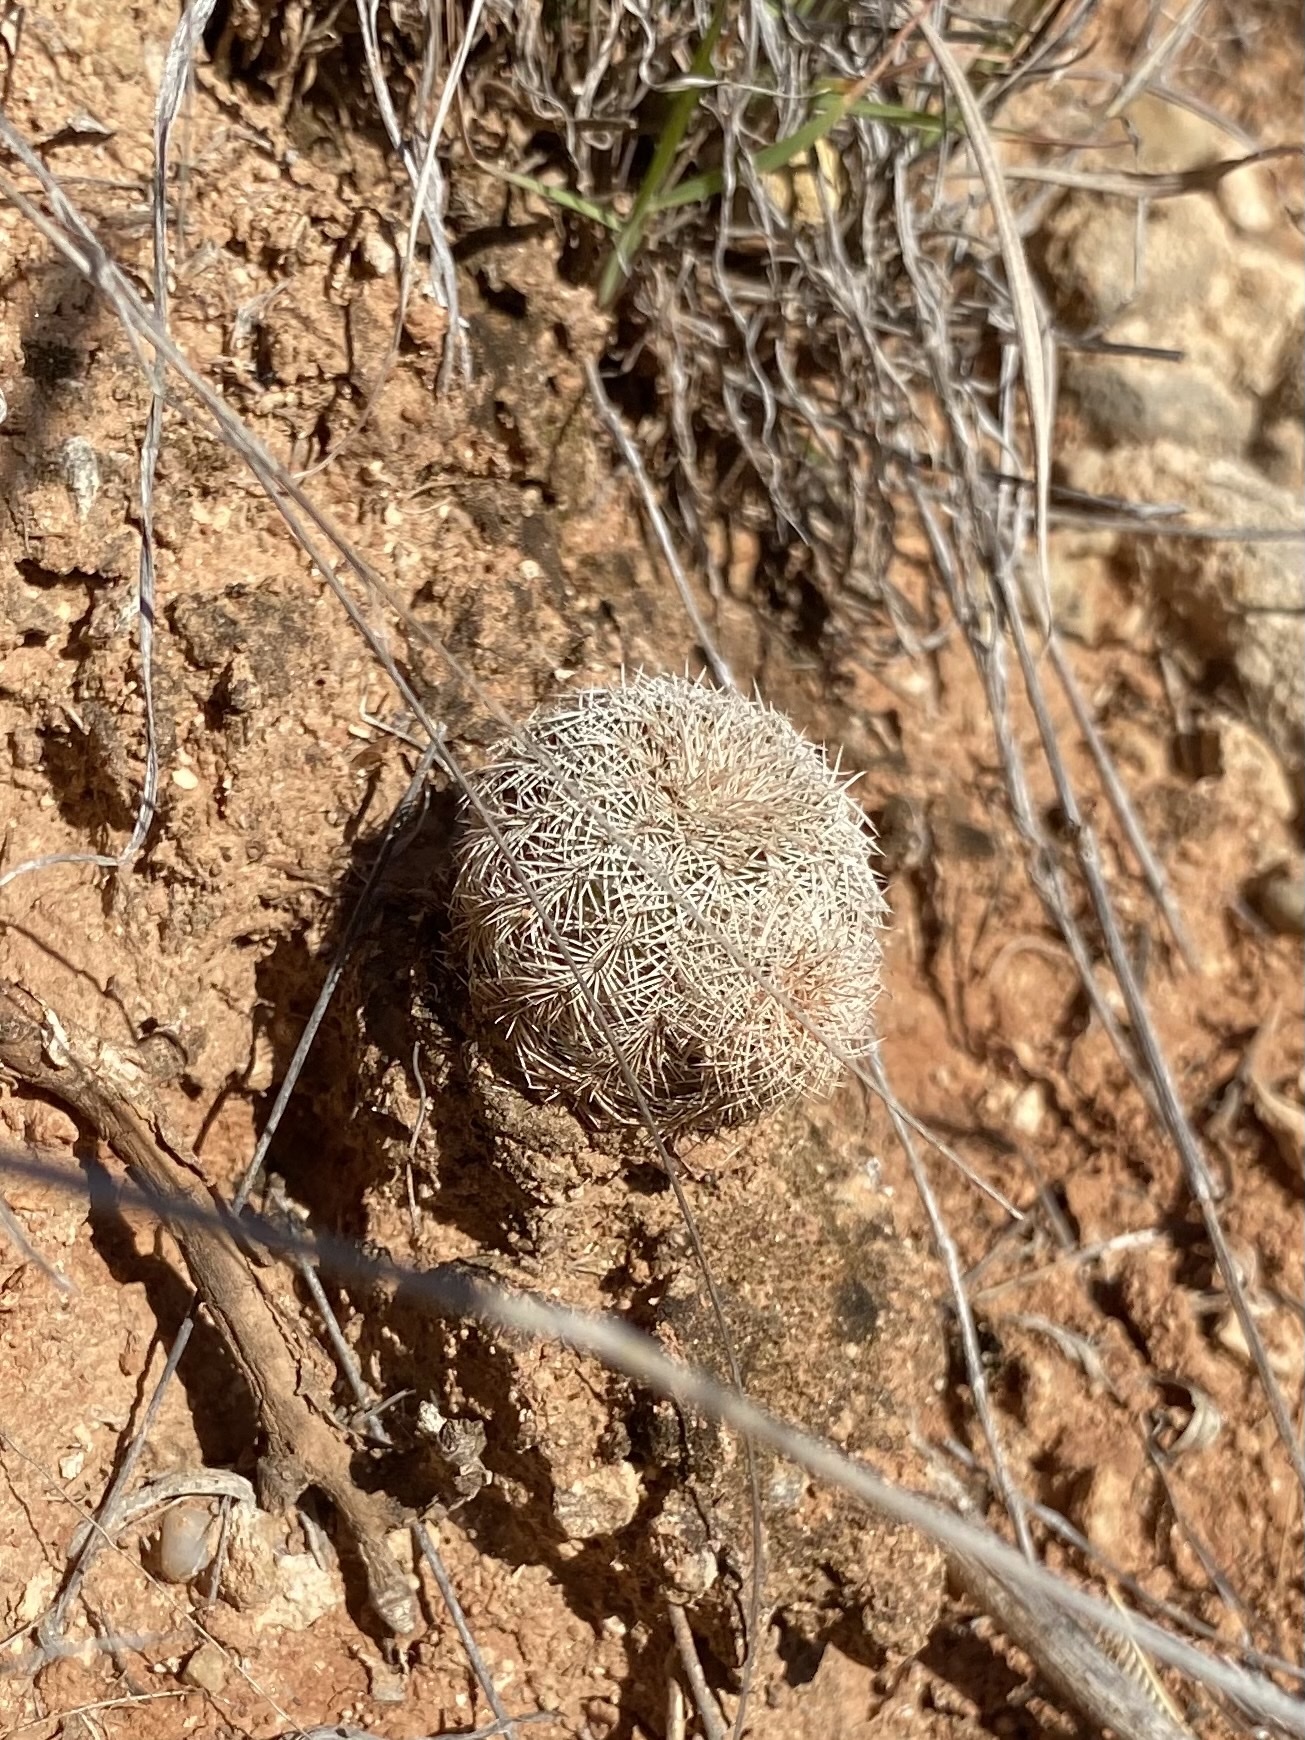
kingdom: Plantae
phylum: Tracheophyta
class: Magnoliopsida
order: Caryophyllales
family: Cactaceae
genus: Echinocereus
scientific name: Echinocereus reichenbachii
